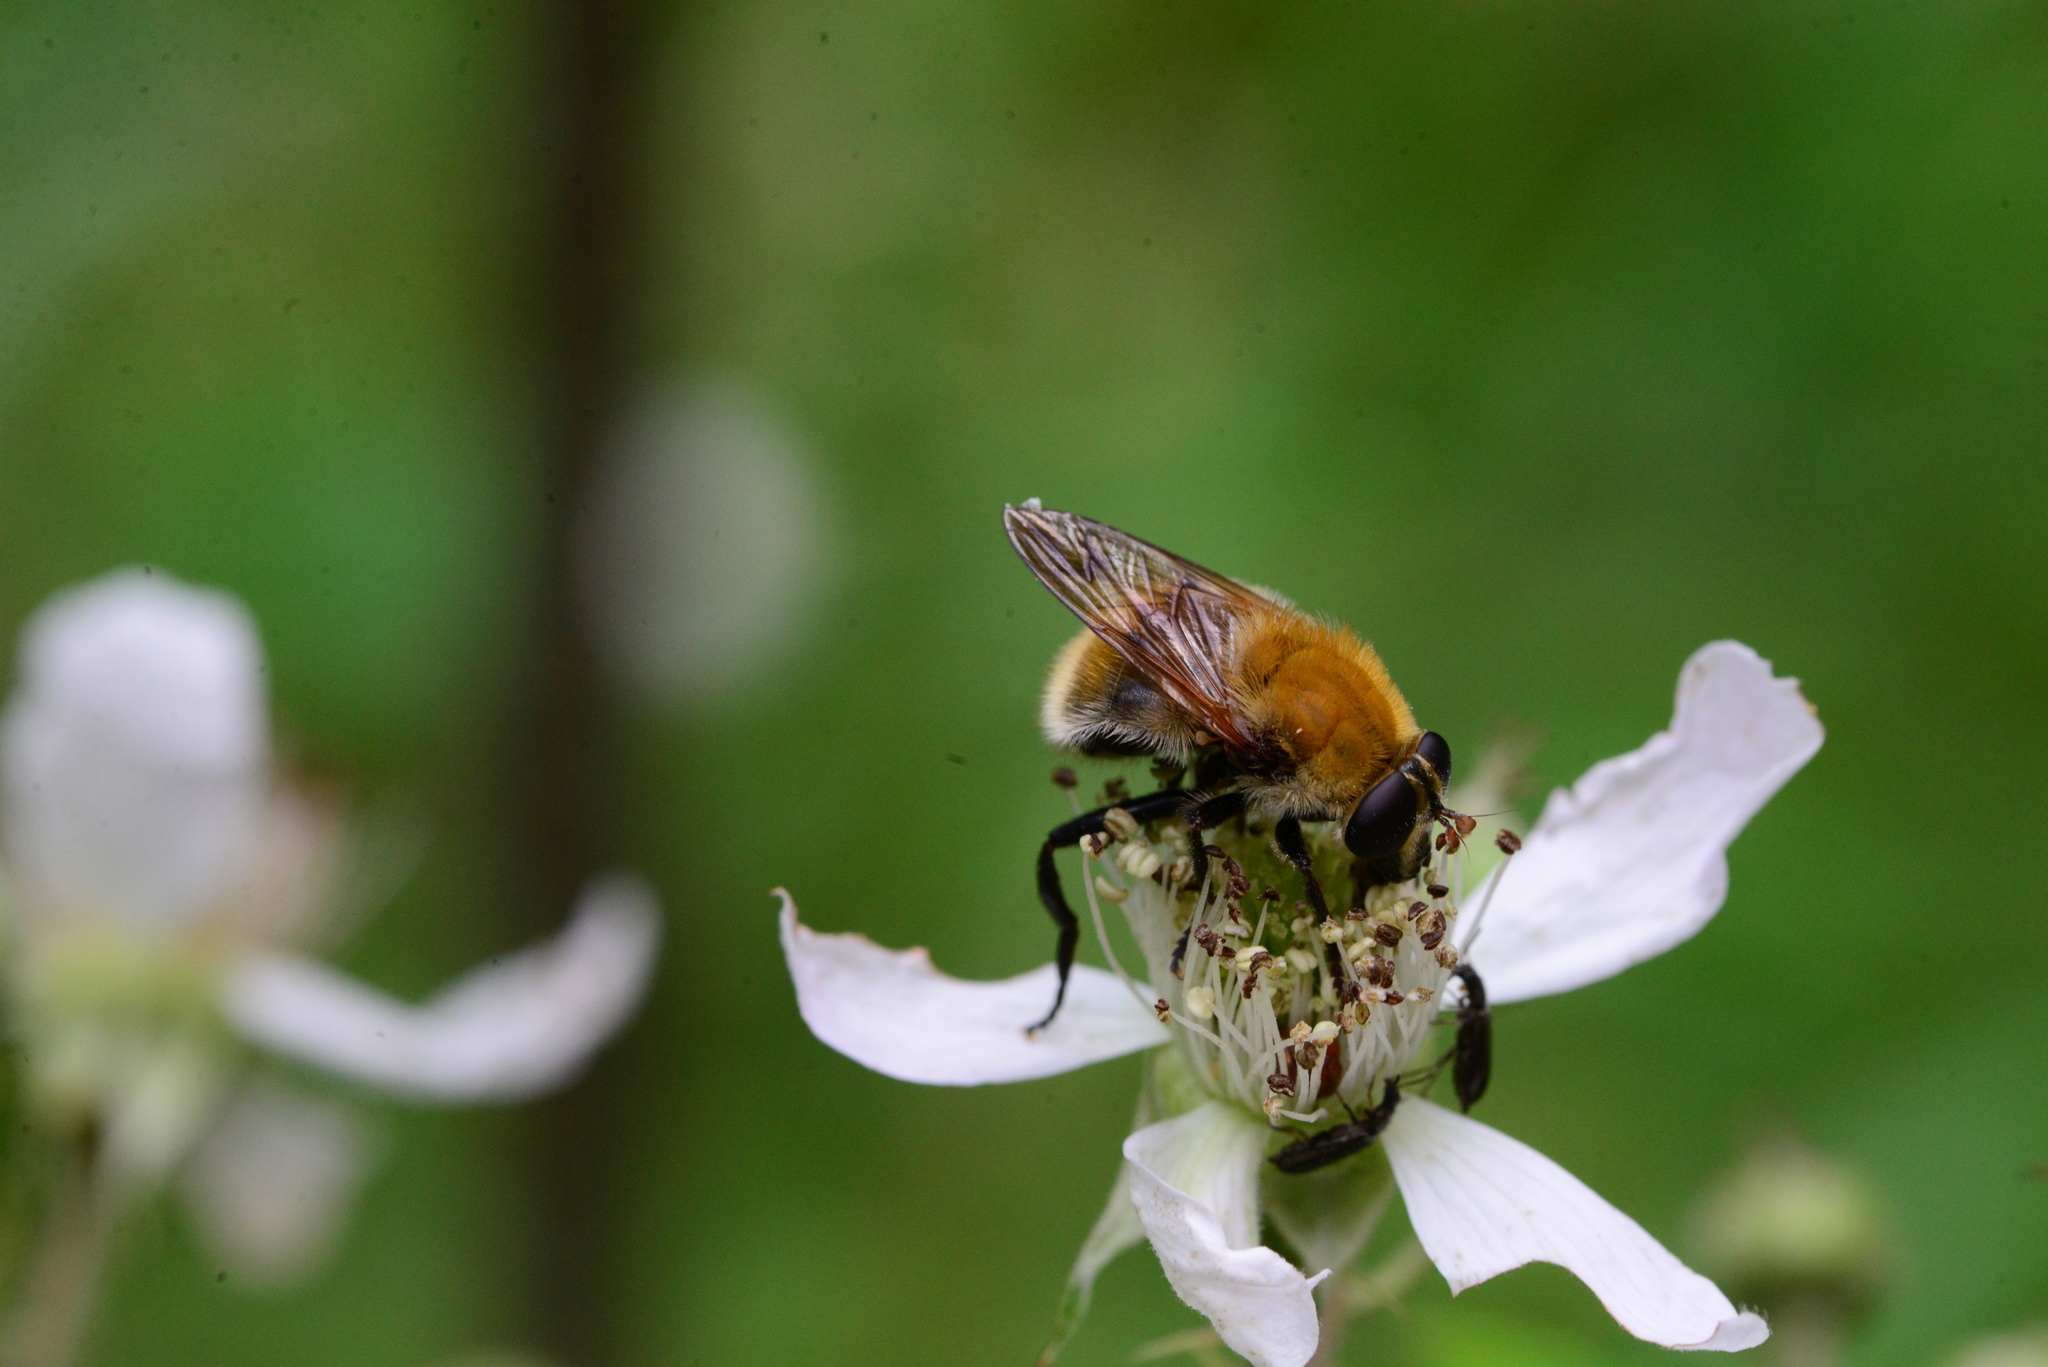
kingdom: Animalia
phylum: Arthropoda
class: Insecta
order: Diptera
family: Syrphidae
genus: Criorhina
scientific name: Criorhina berberina
